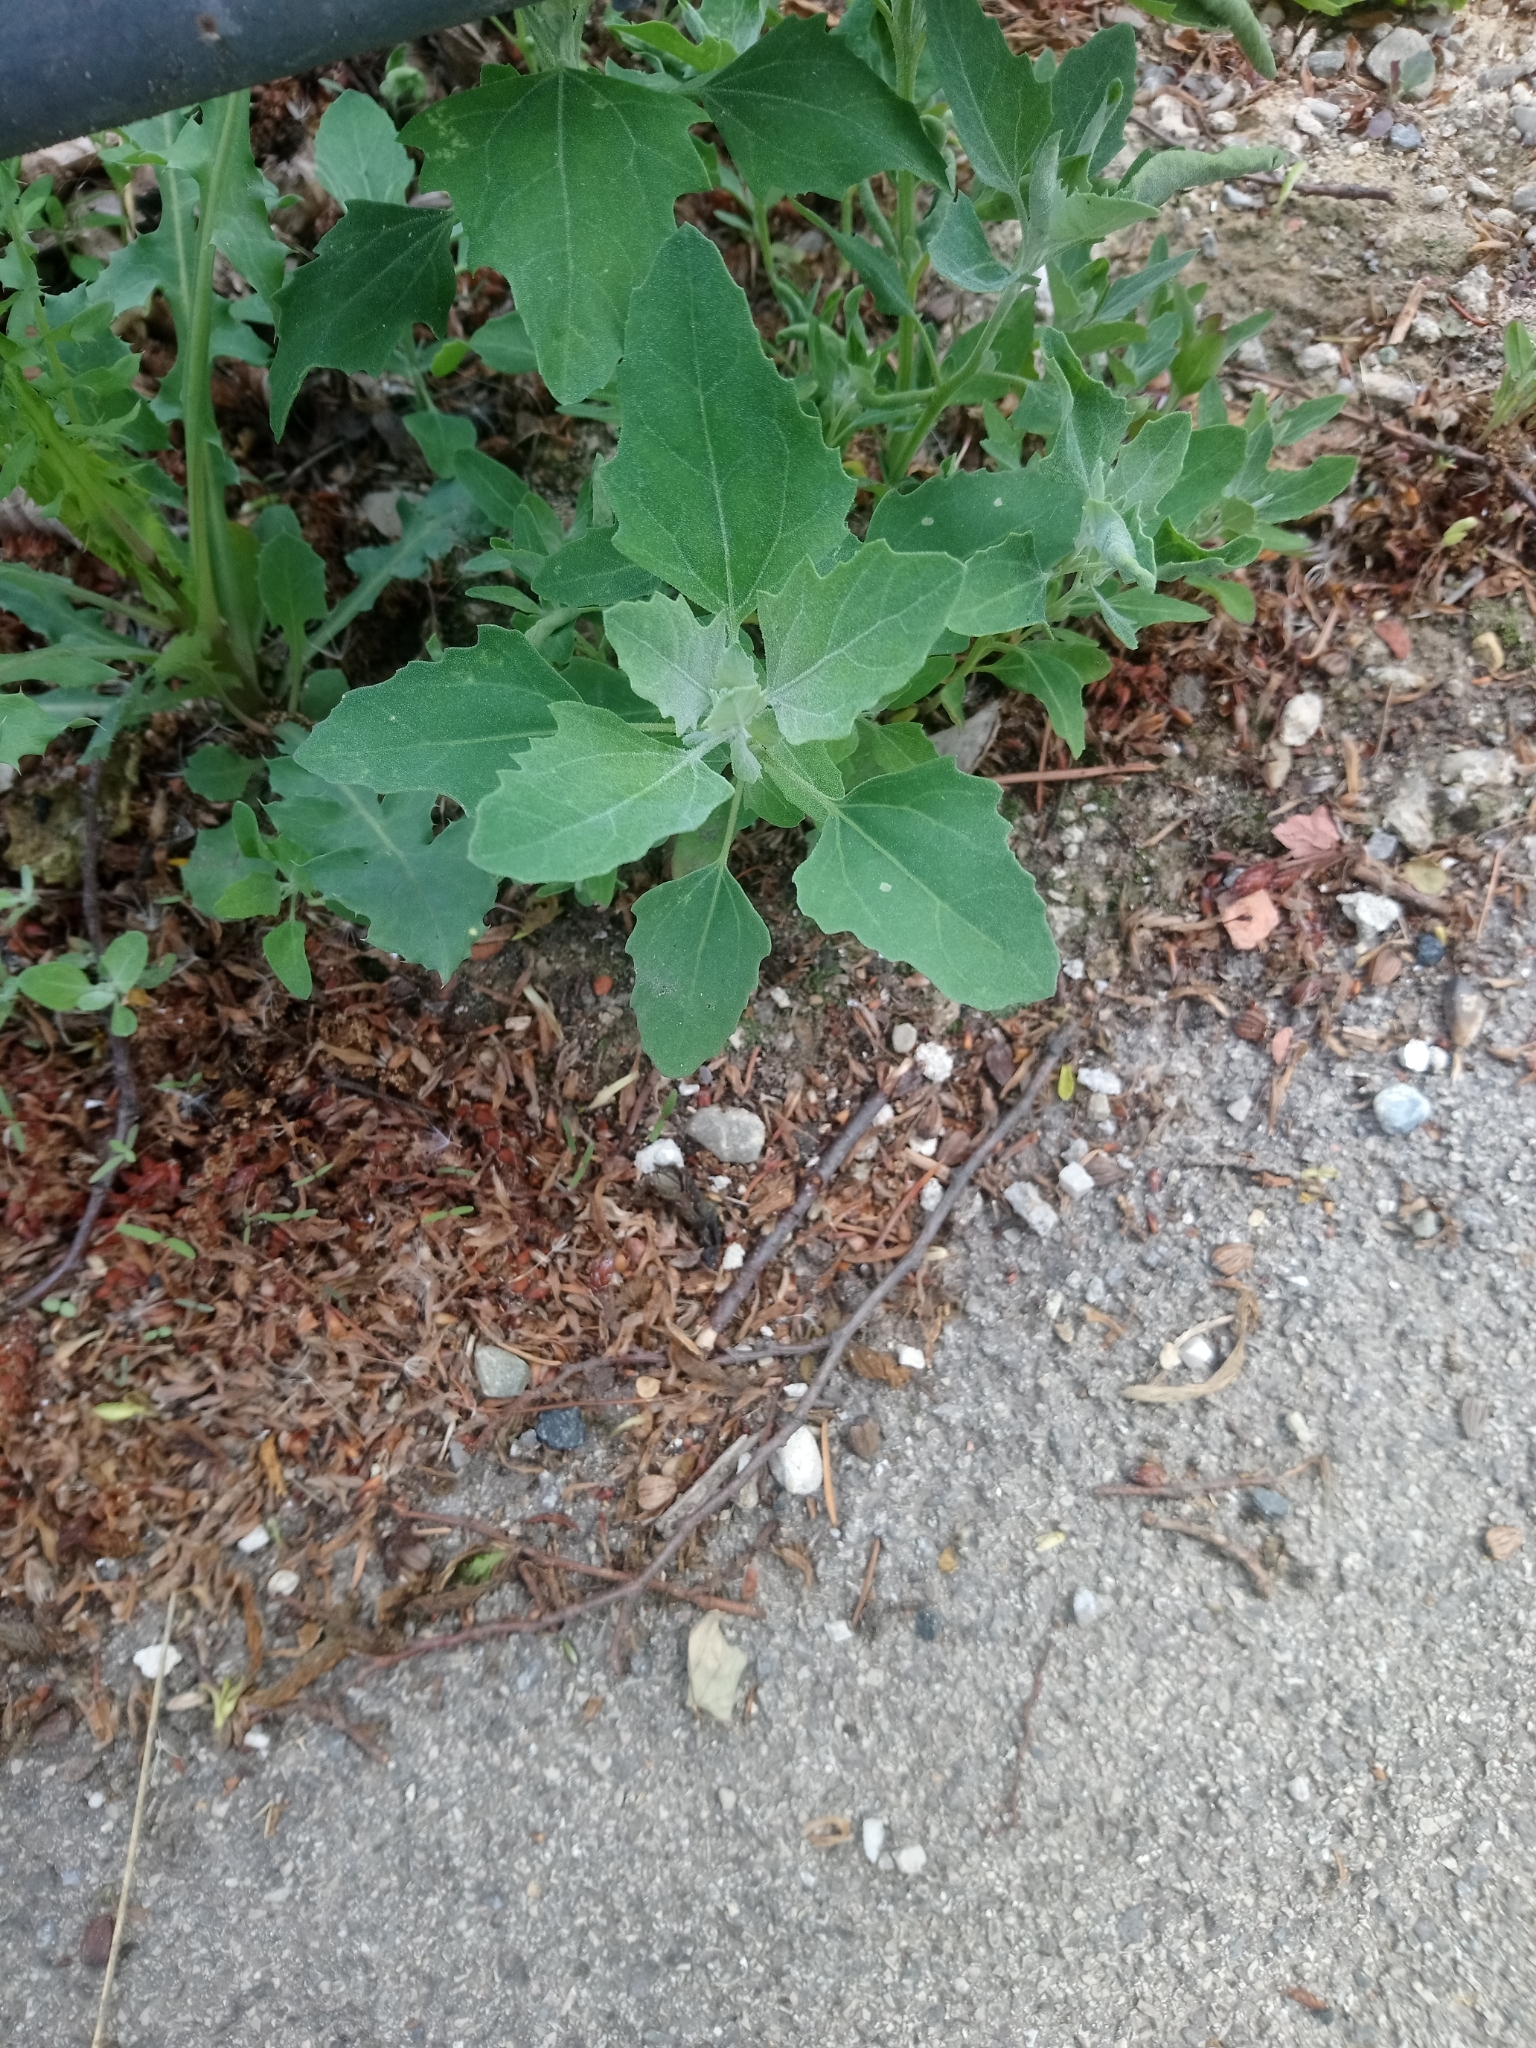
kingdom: Plantae
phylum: Tracheophyta
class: Magnoliopsida
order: Caryophyllales
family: Amaranthaceae
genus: Chenopodium
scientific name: Chenopodium album
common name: Fat-hen
